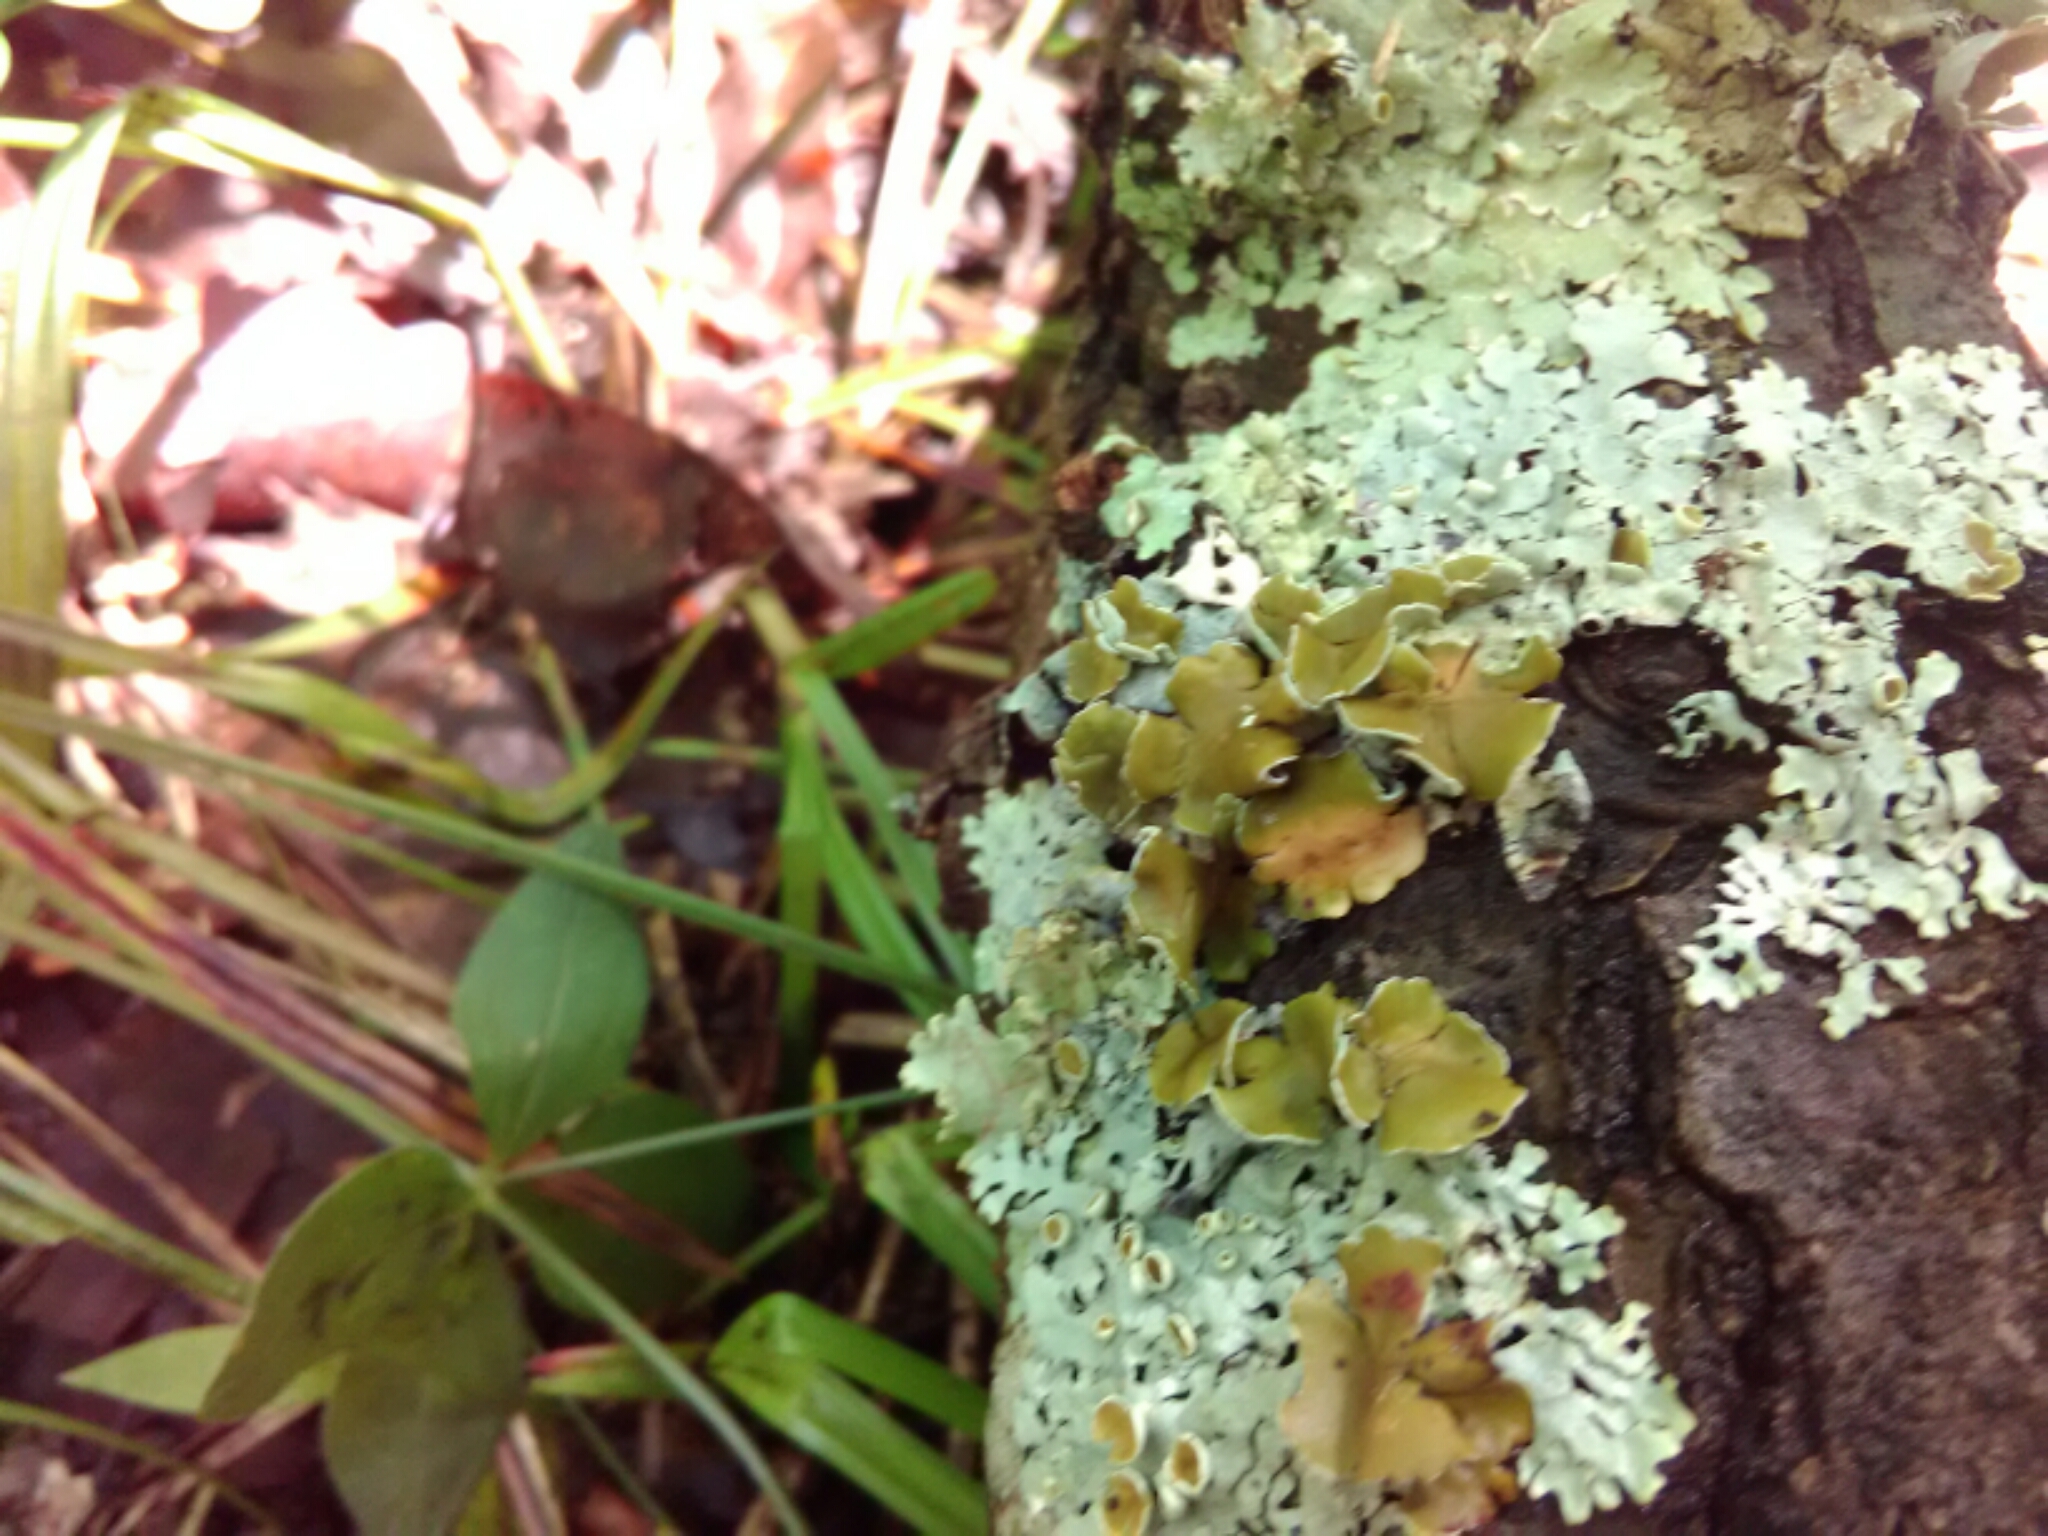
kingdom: Fungi
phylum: Ascomycota
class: Lecanoromycetes
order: Lecanorales
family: Parmeliaceae
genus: Myelochroa
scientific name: Myelochroa galbina
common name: Smooth axil-bristle lichen
